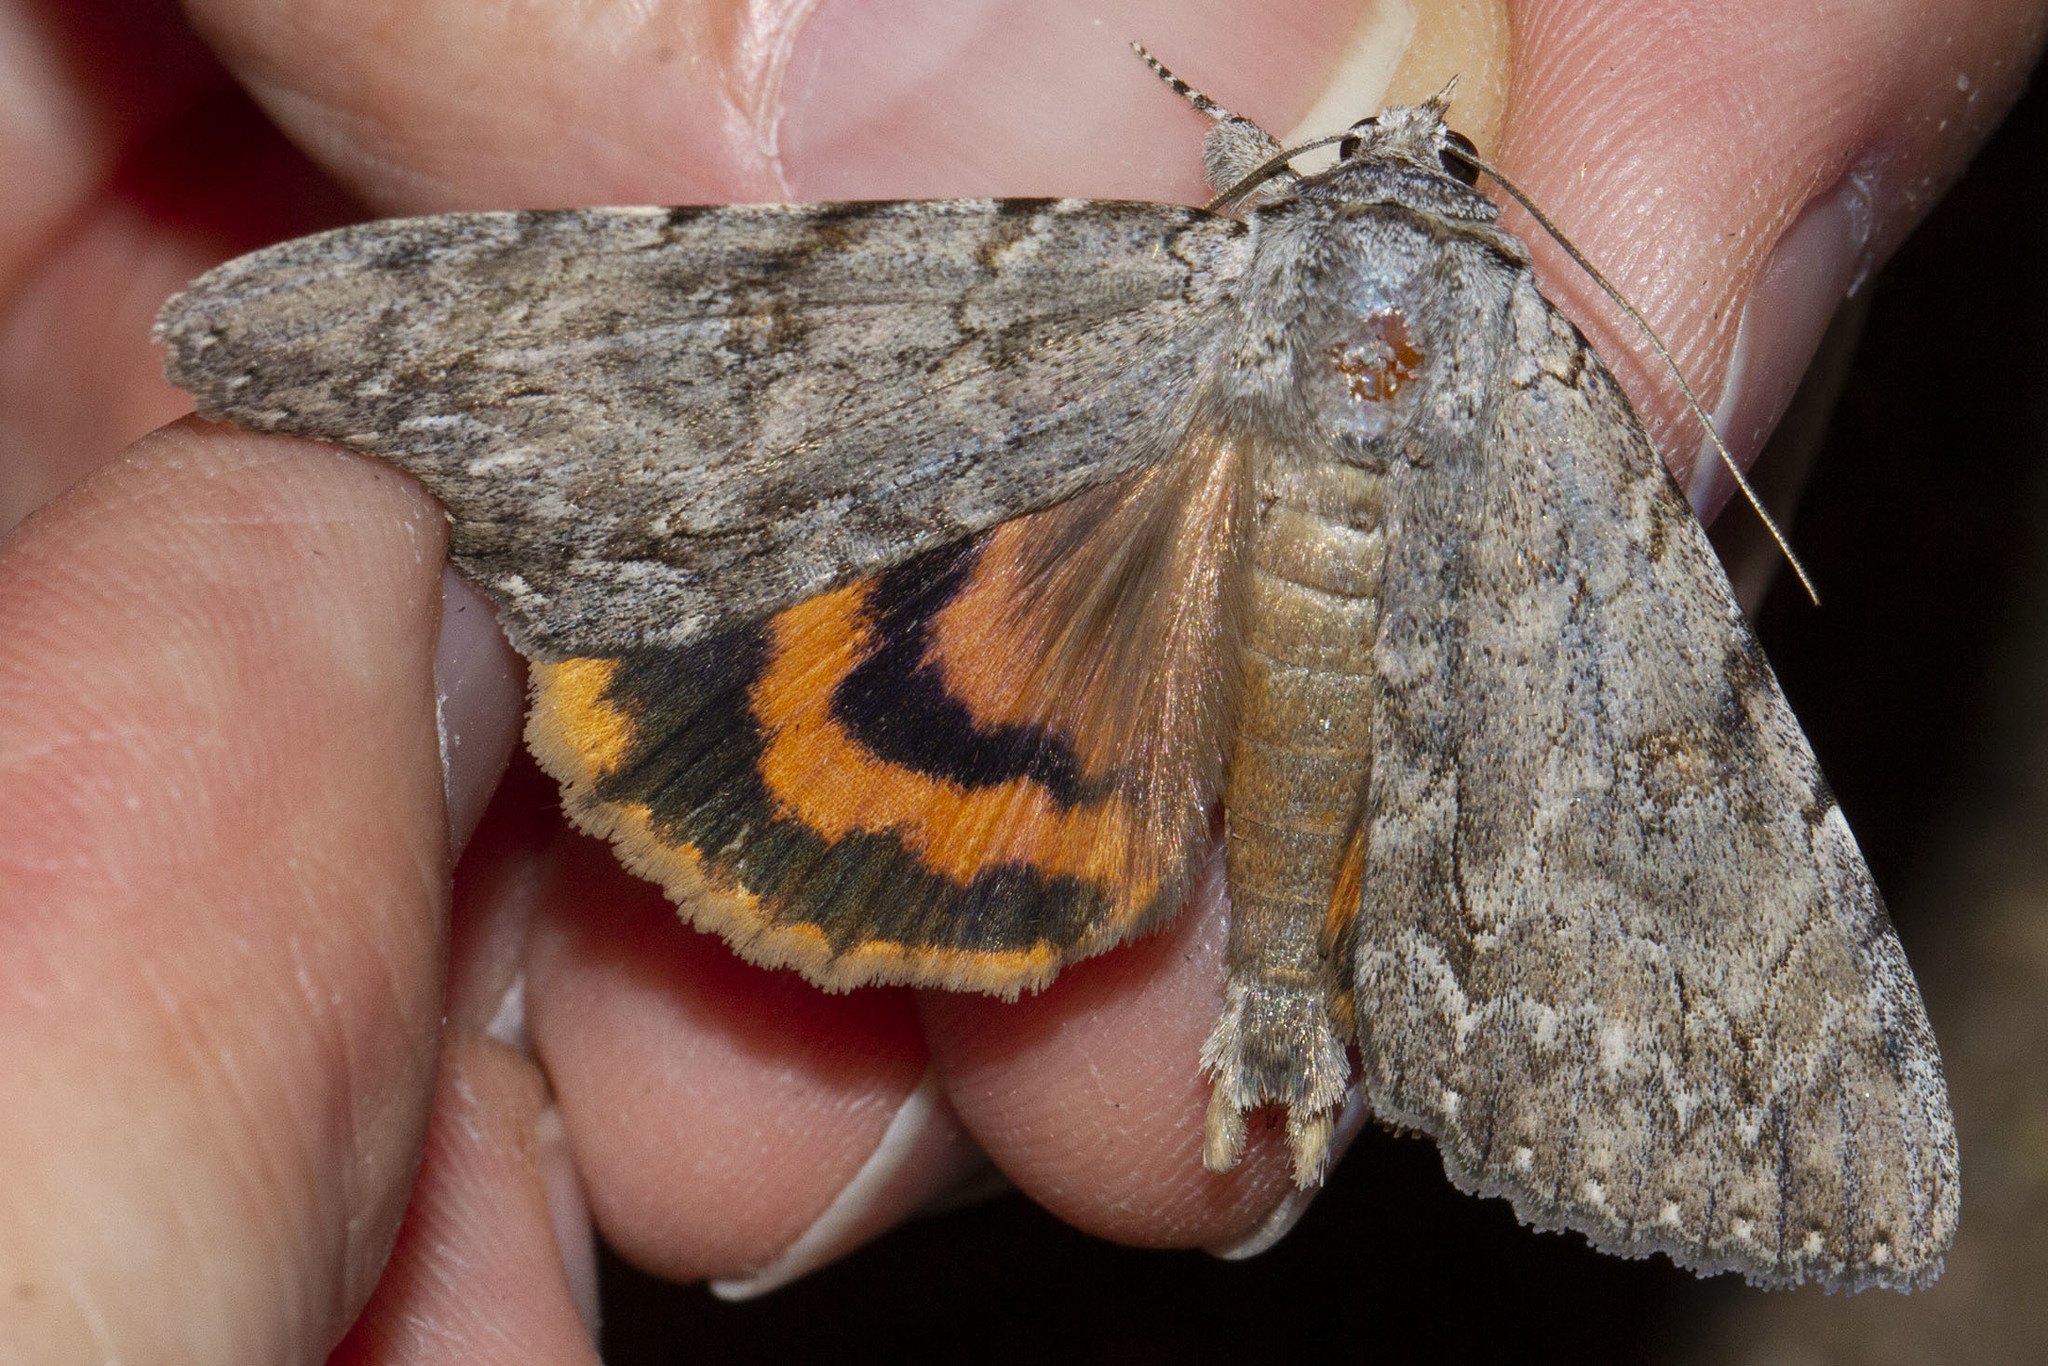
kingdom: Animalia
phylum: Arthropoda
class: Insecta
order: Lepidoptera
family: Erebidae
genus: Catocala
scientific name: Catocala habilis
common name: Habilis underwing
